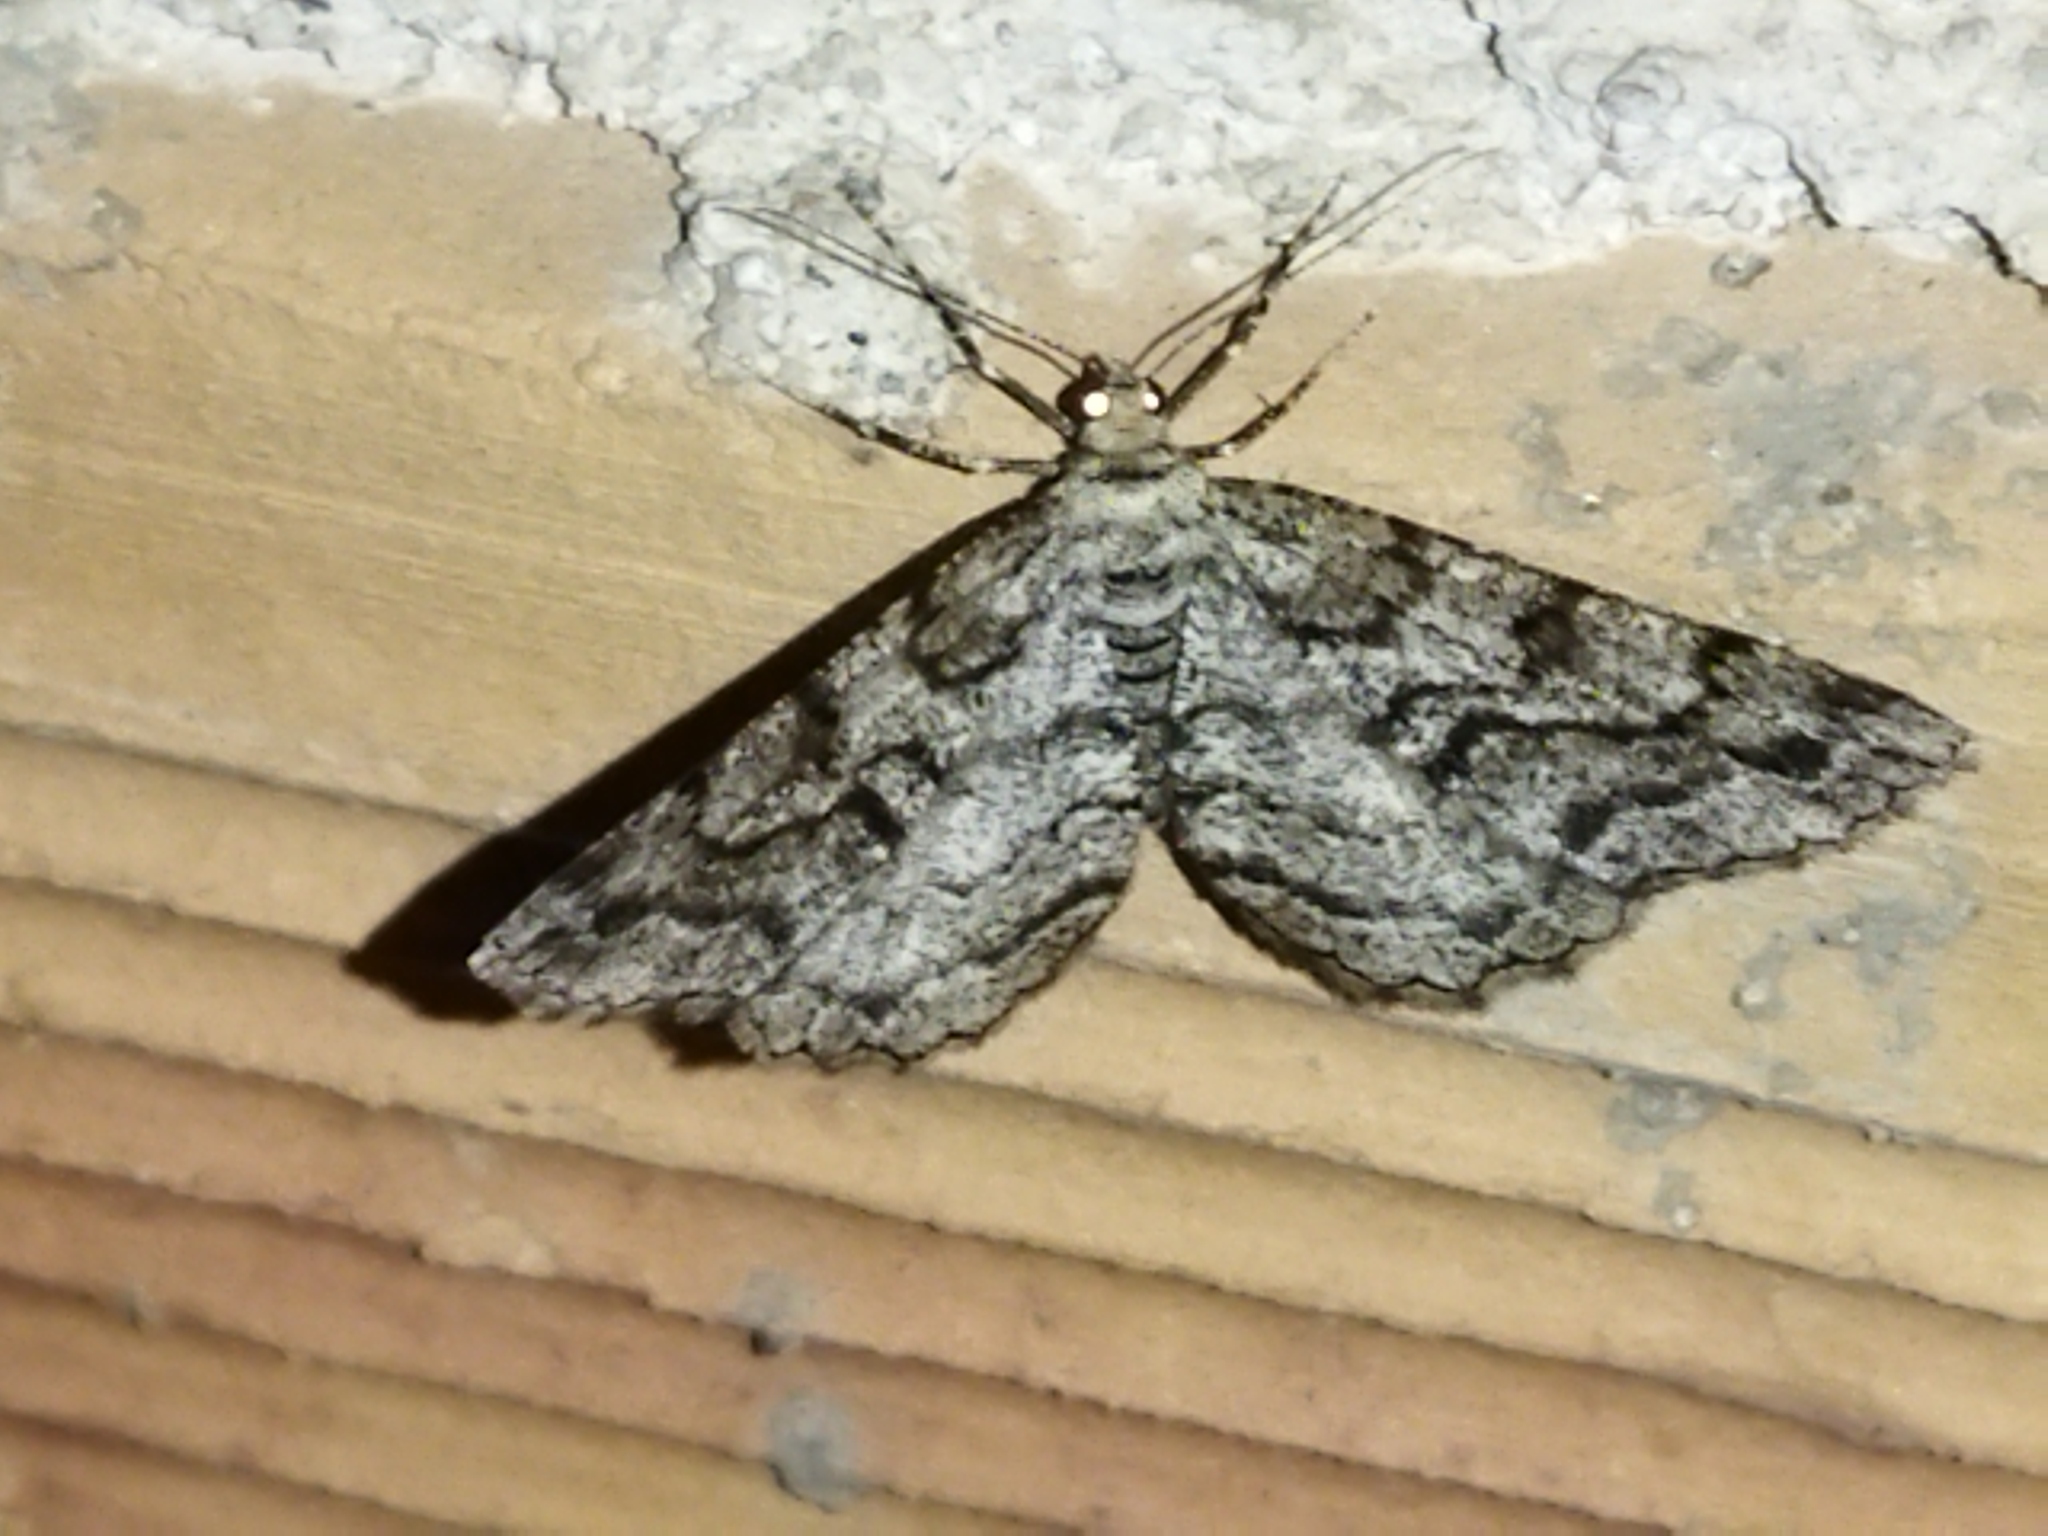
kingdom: Animalia
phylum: Arthropoda
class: Insecta
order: Lepidoptera
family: Geometridae
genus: Peribatodes
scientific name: Peribatodes secundaria
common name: Feathered beauty
